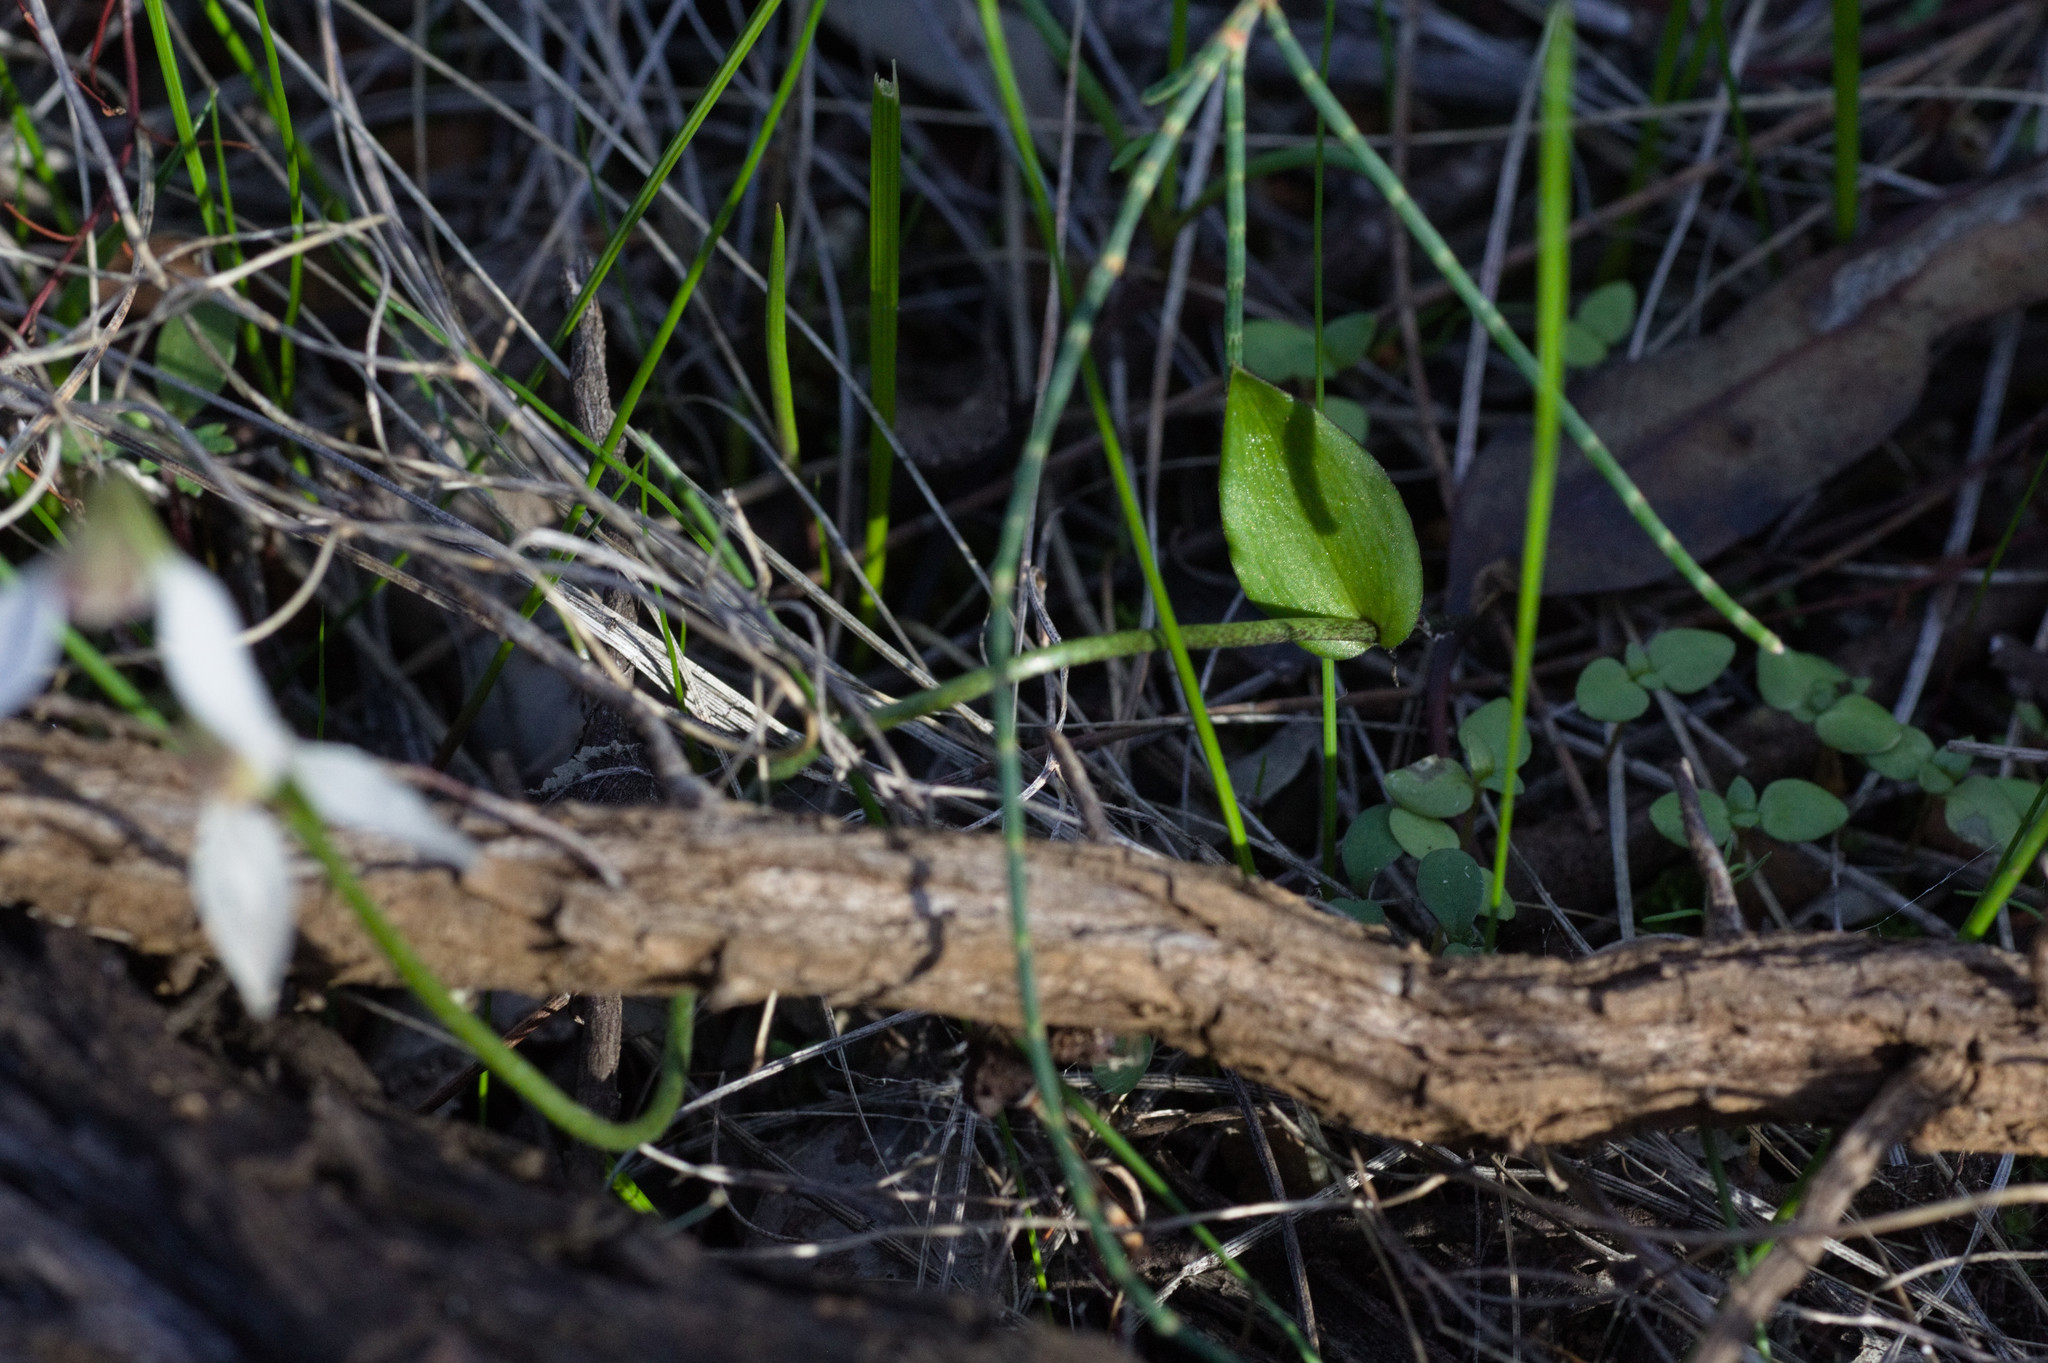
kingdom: Plantae
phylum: Tracheophyta
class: Liliopsida
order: Asparagales
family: Orchidaceae
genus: Eriochilus
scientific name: Eriochilus dilatatus
